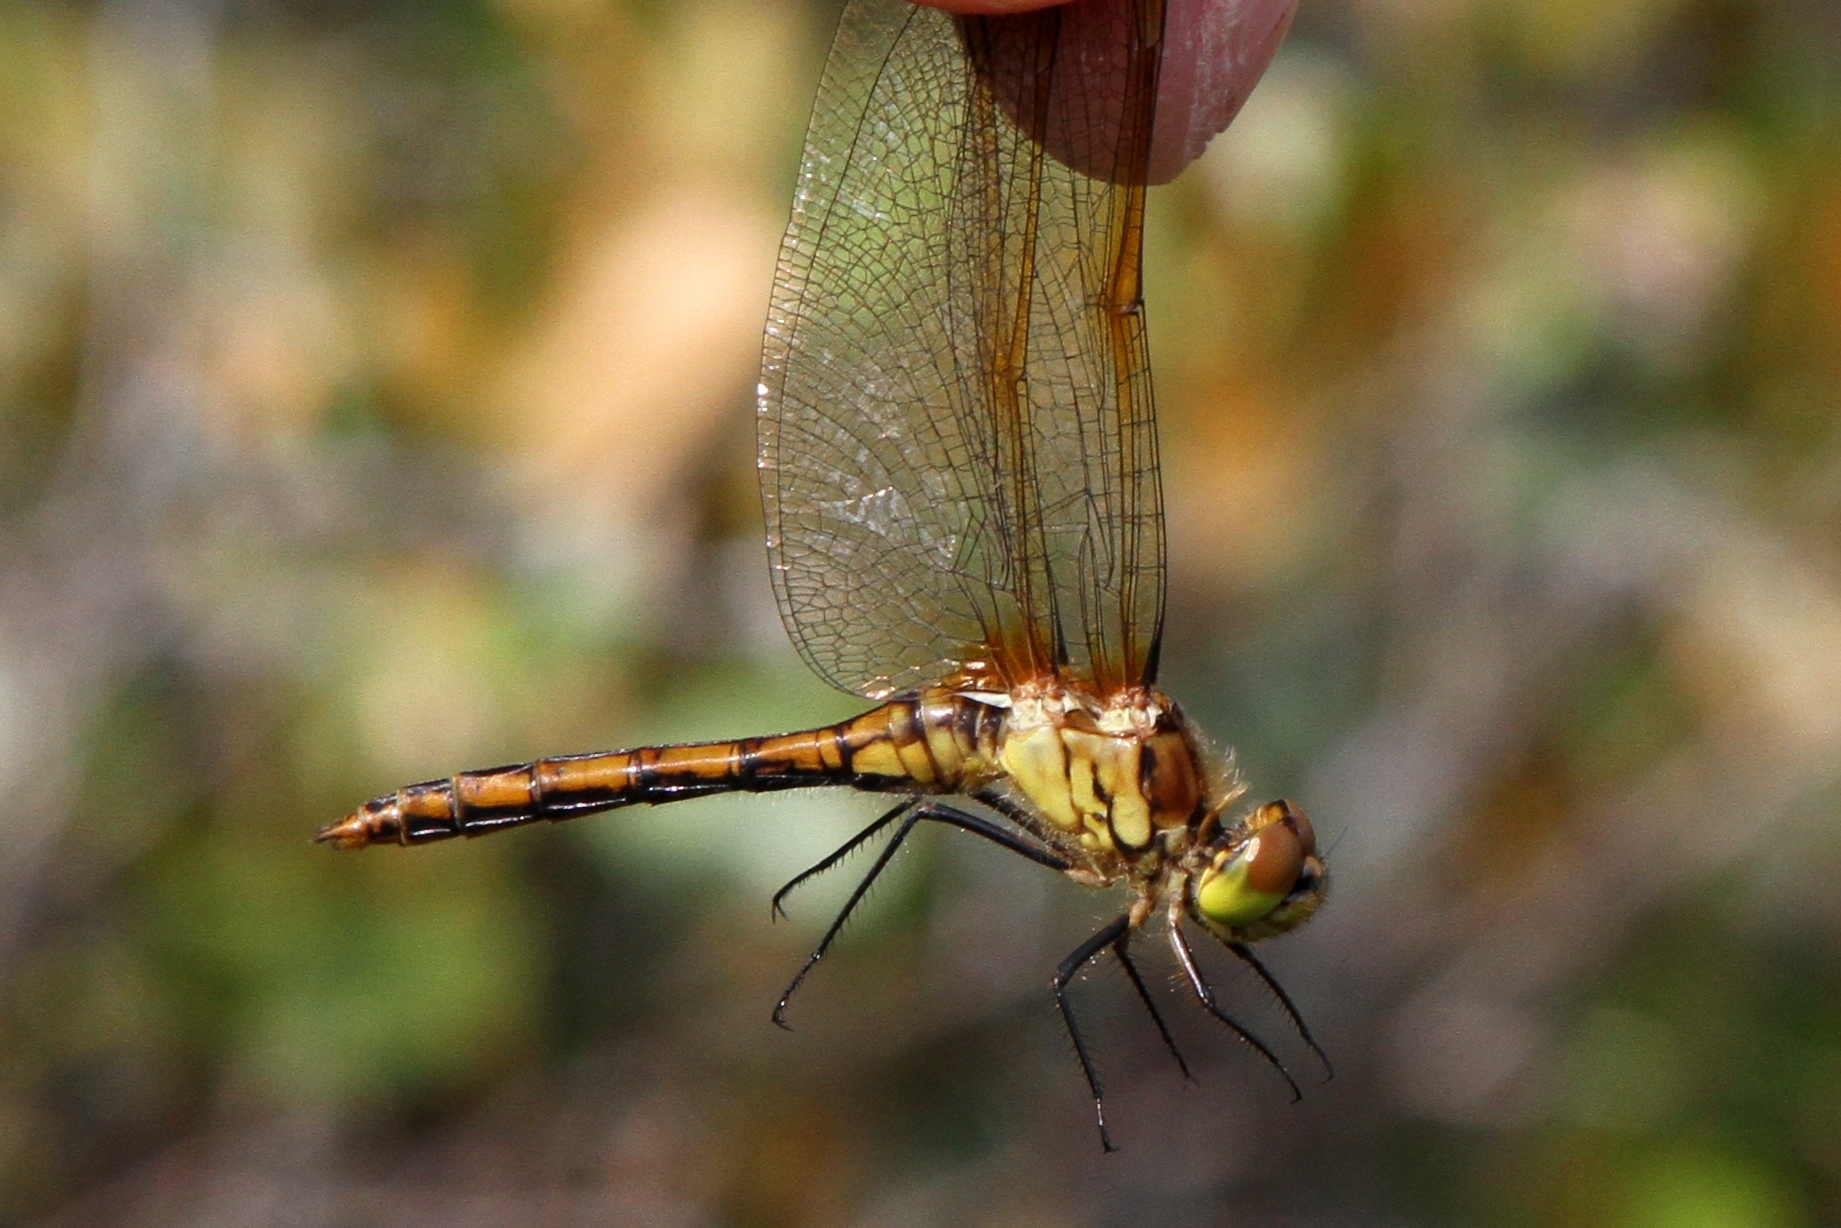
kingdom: Animalia
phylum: Arthropoda
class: Insecta
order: Odonata
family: Libellulidae
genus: Sympetrum
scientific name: Sympetrum costiferum
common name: Saffron-winged meadowhawk
